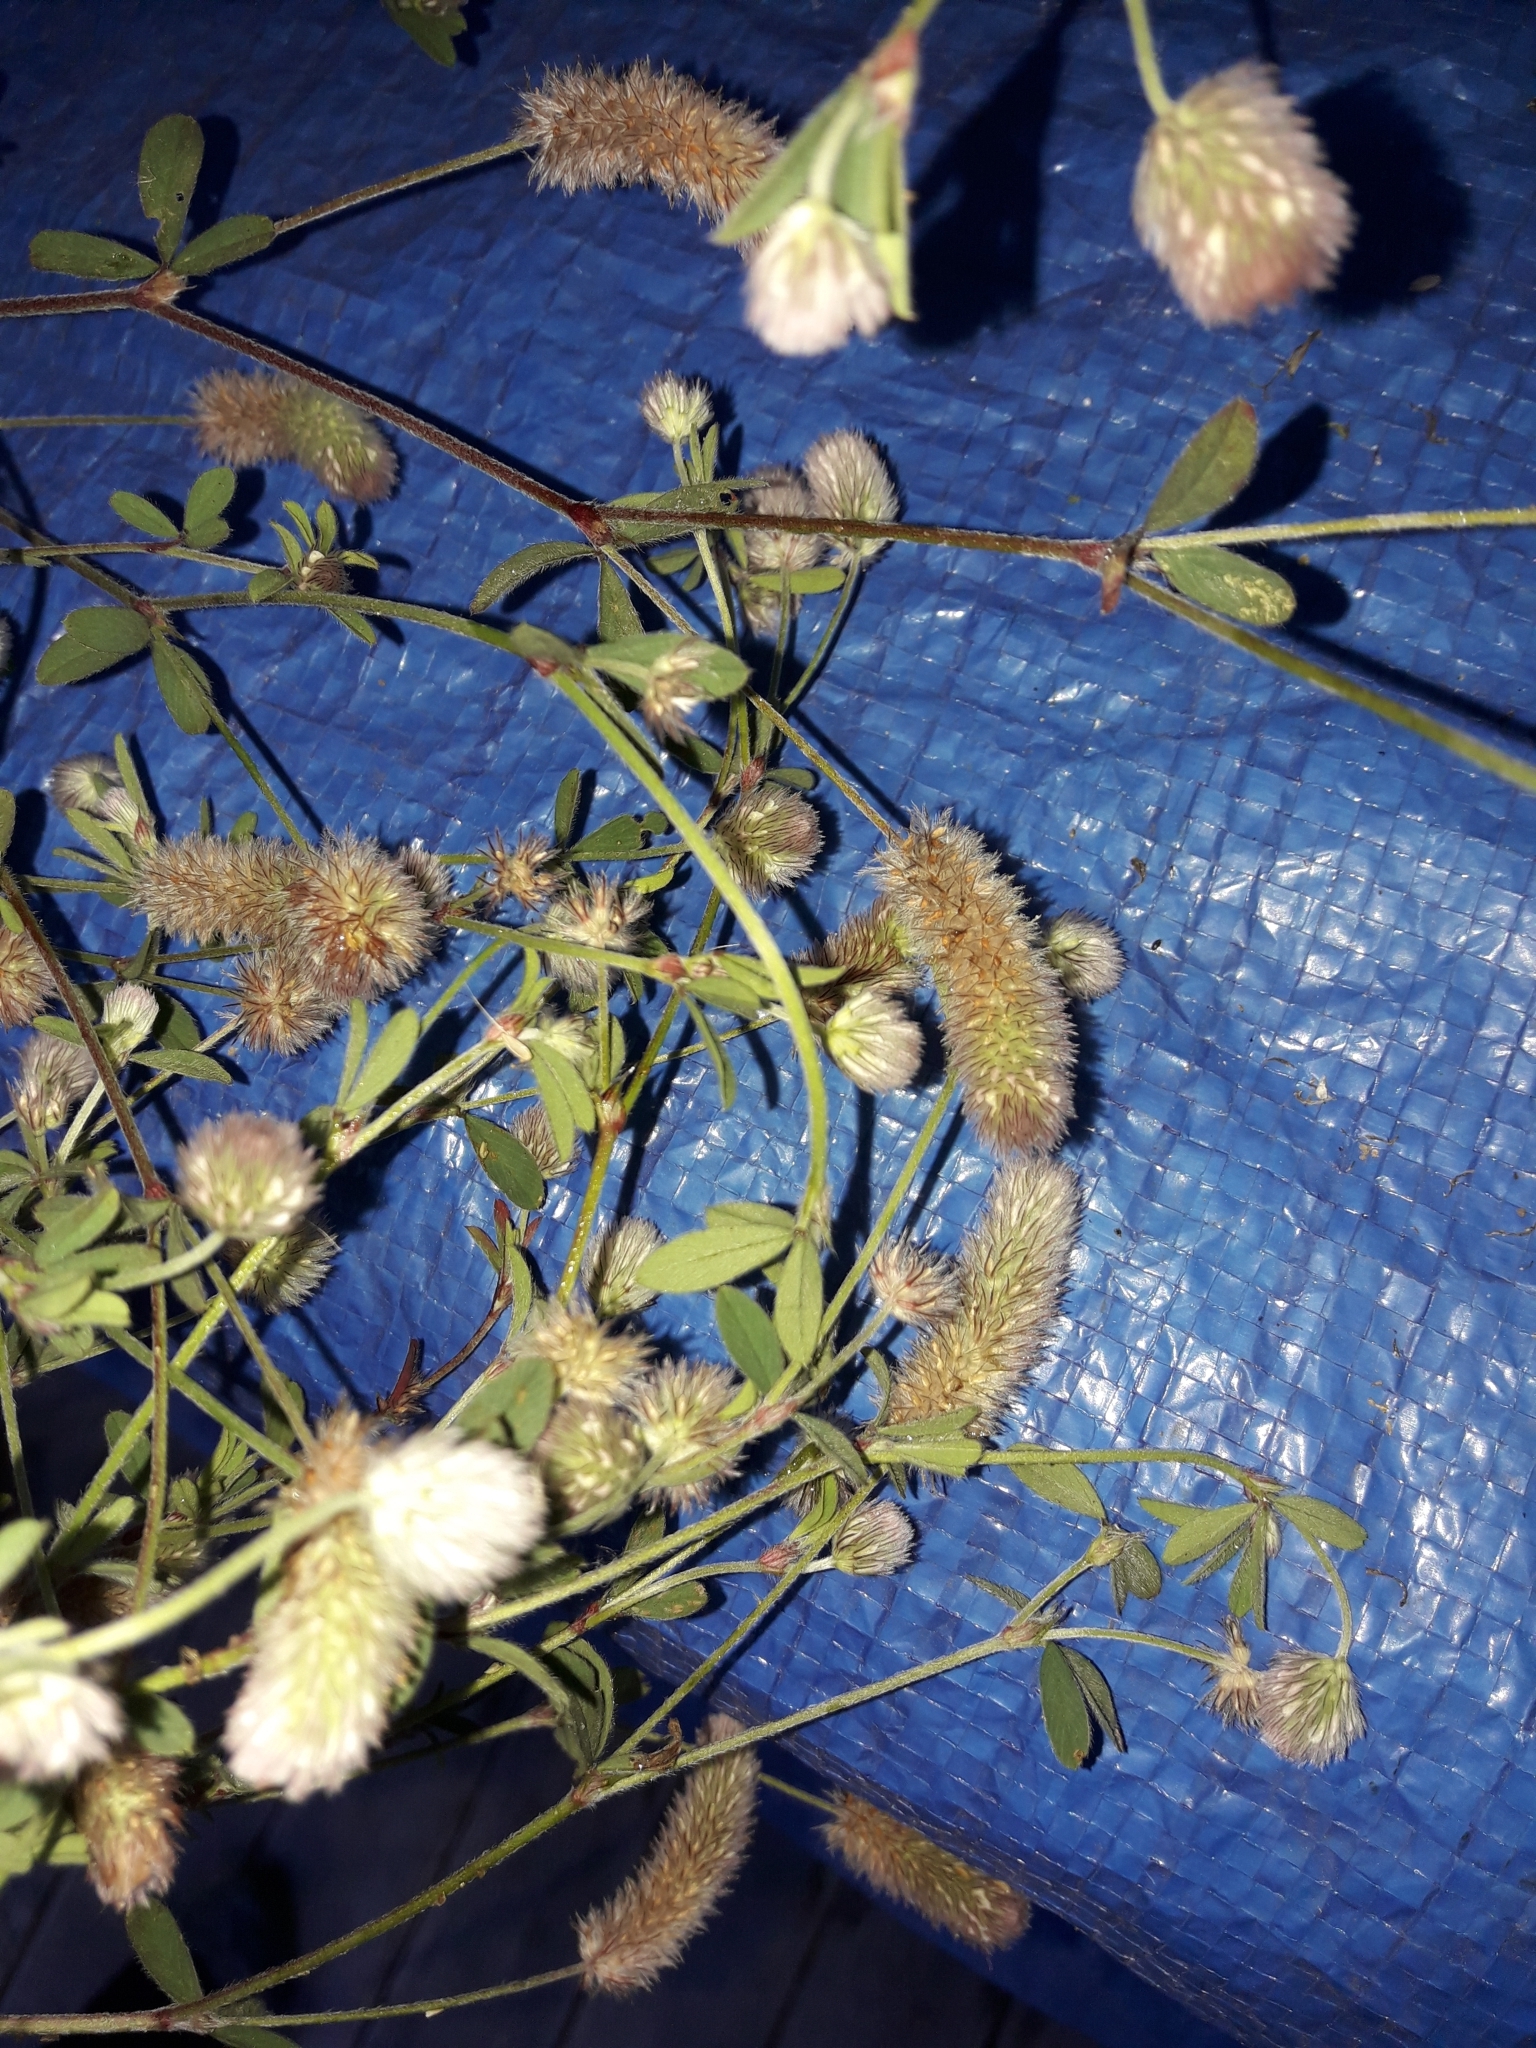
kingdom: Plantae
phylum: Tracheophyta
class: Magnoliopsida
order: Fabales
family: Fabaceae
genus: Trifolium
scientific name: Trifolium arvense
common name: Hare's-foot clover
